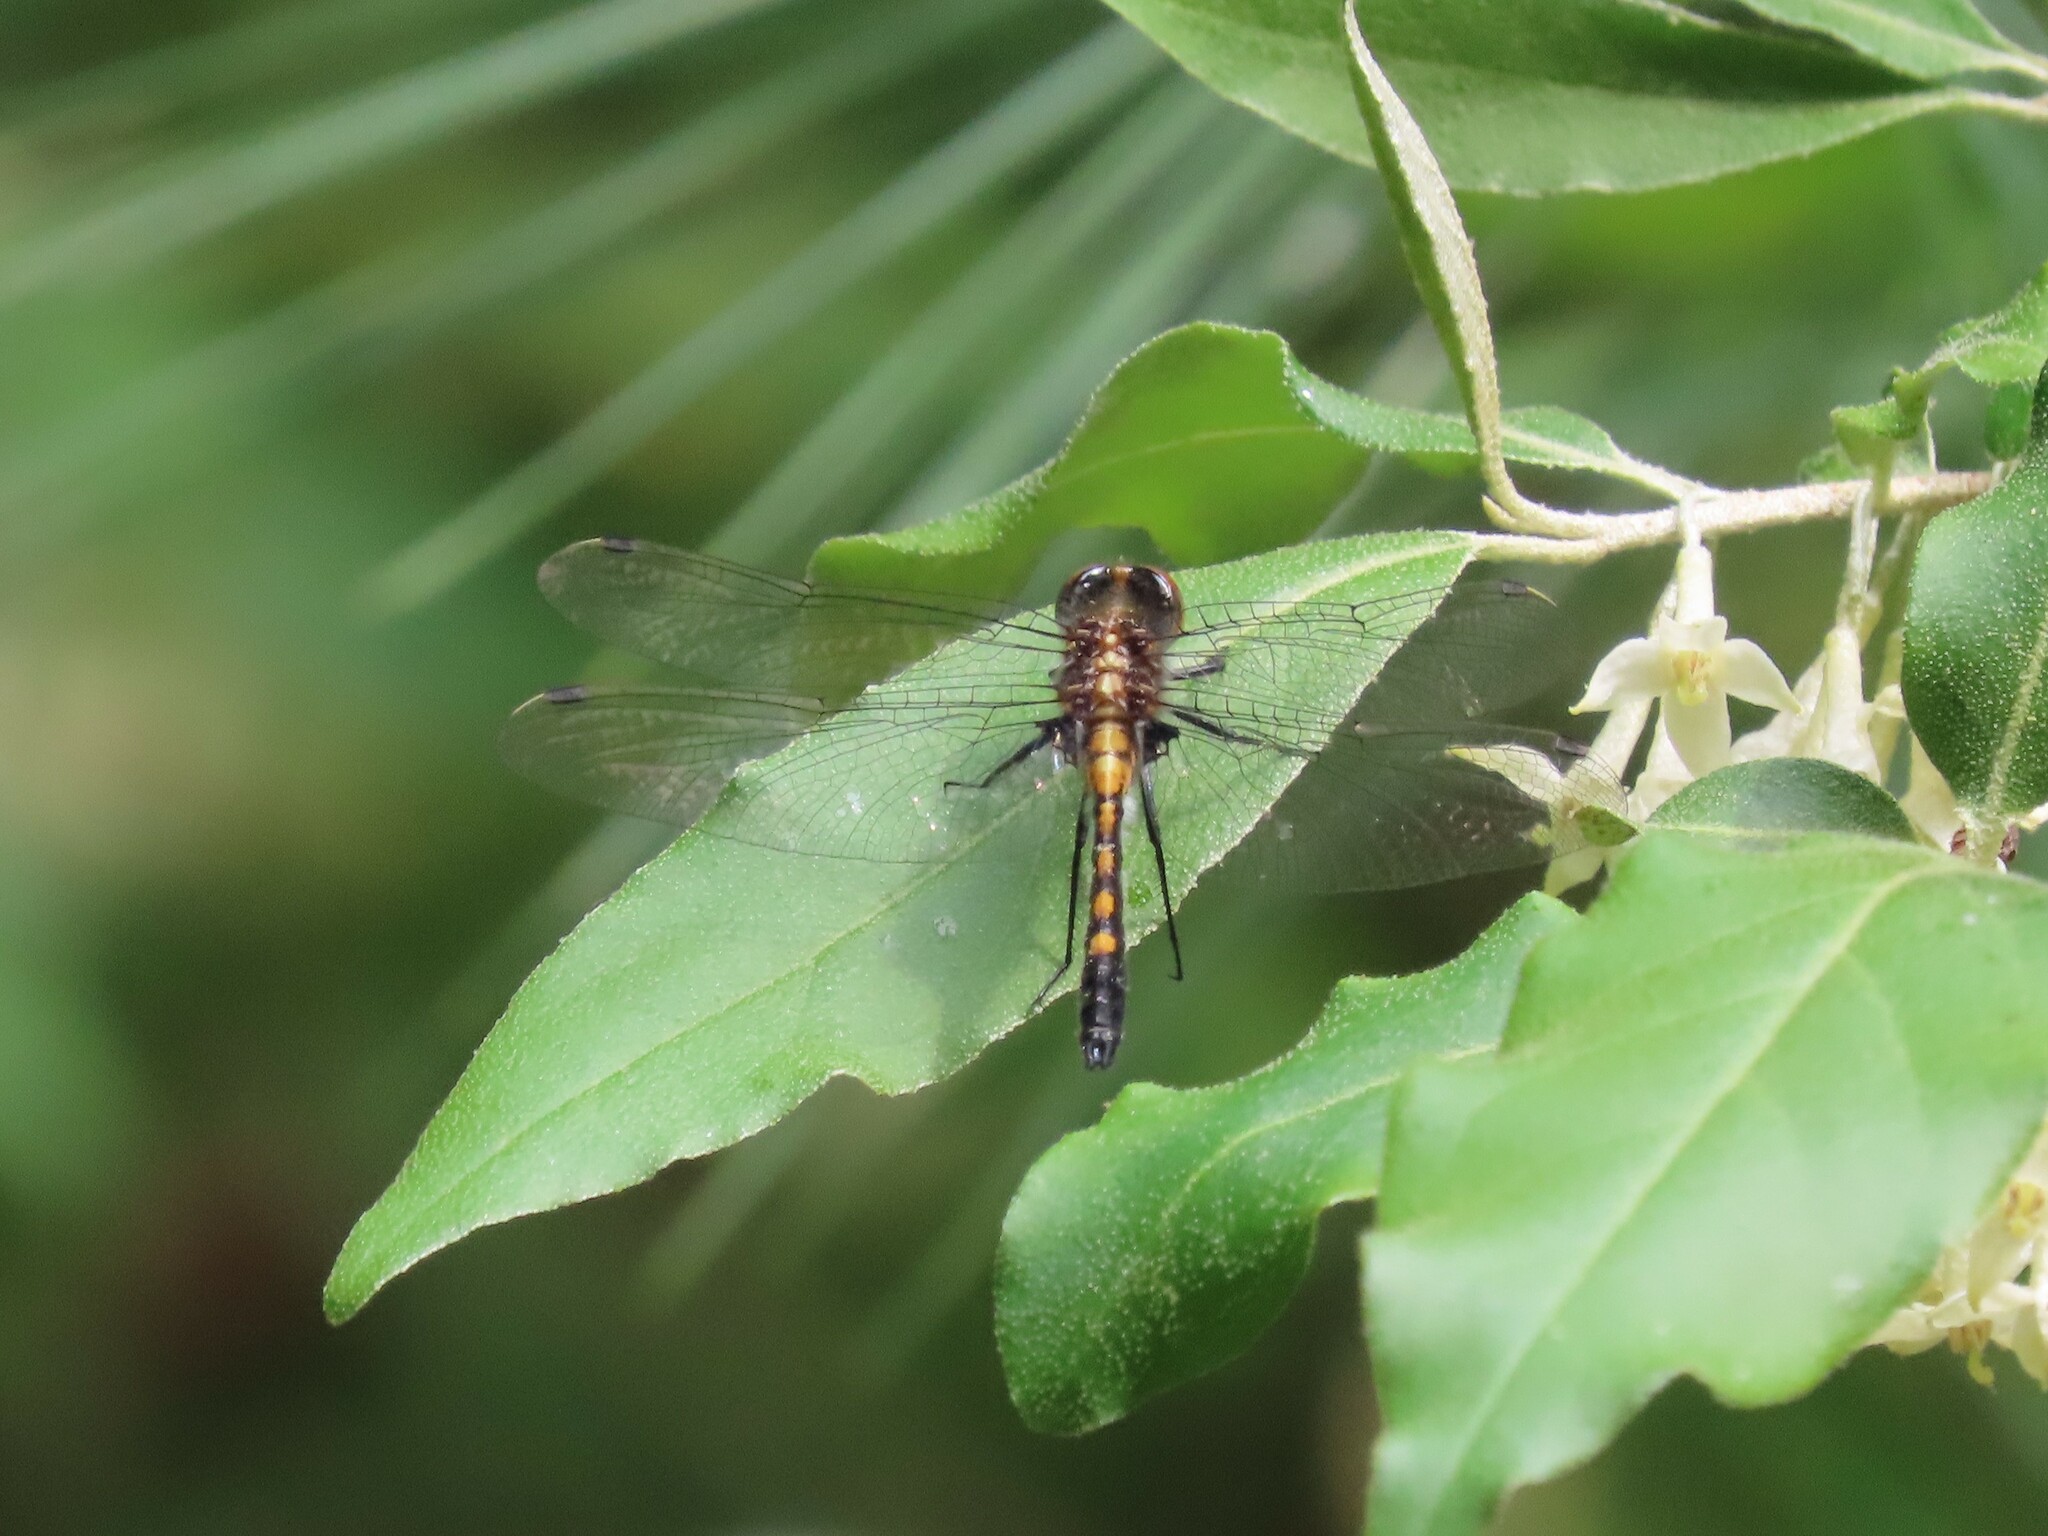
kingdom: Animalia
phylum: Arthropoda
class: Insecta
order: Odonata
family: Libellulidae
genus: Leucorrhinia
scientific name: Leucorrhinia intacta
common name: Dot-tailed whiteface
